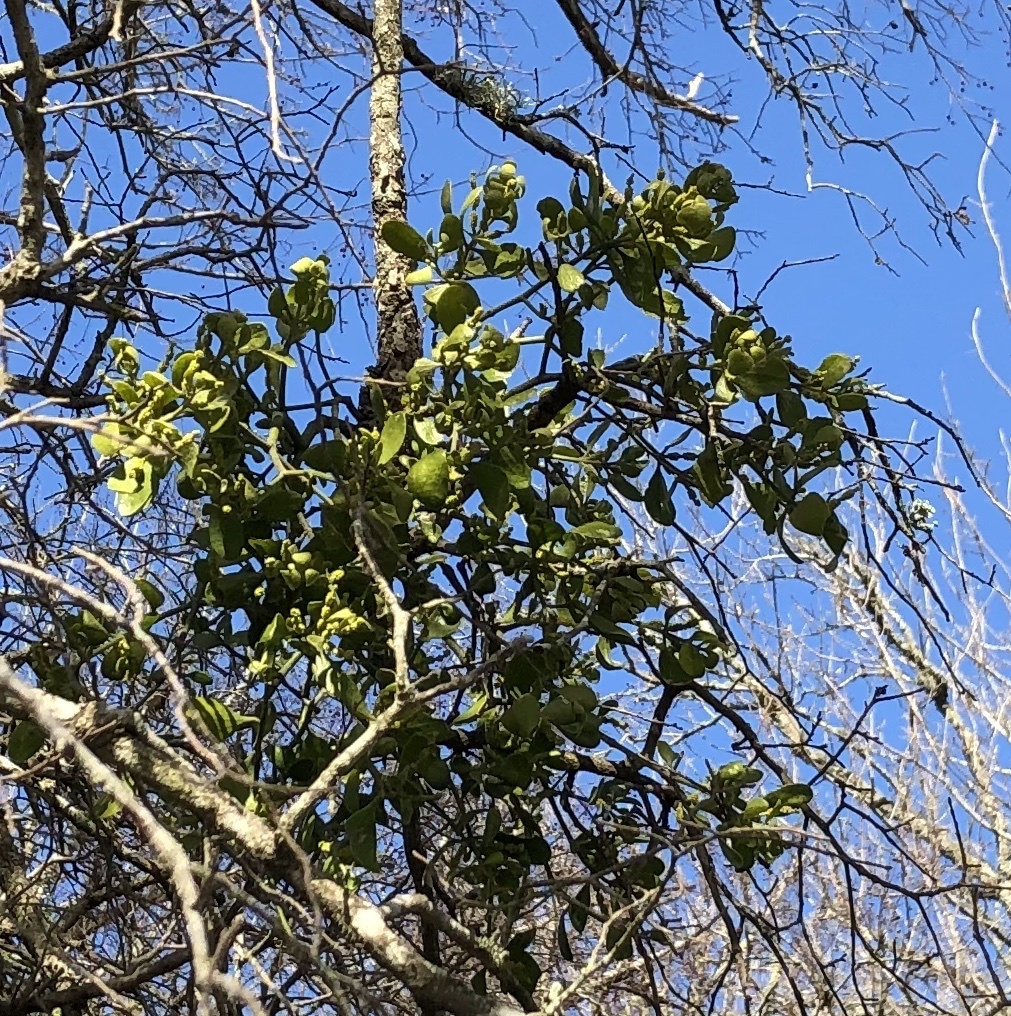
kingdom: Plantae
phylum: Tracheophyta
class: Magnoliopsida
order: Santalales
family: Viscaceae
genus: Phoradendron
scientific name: Phoradendron leucarpum
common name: Pacific mistletoe
